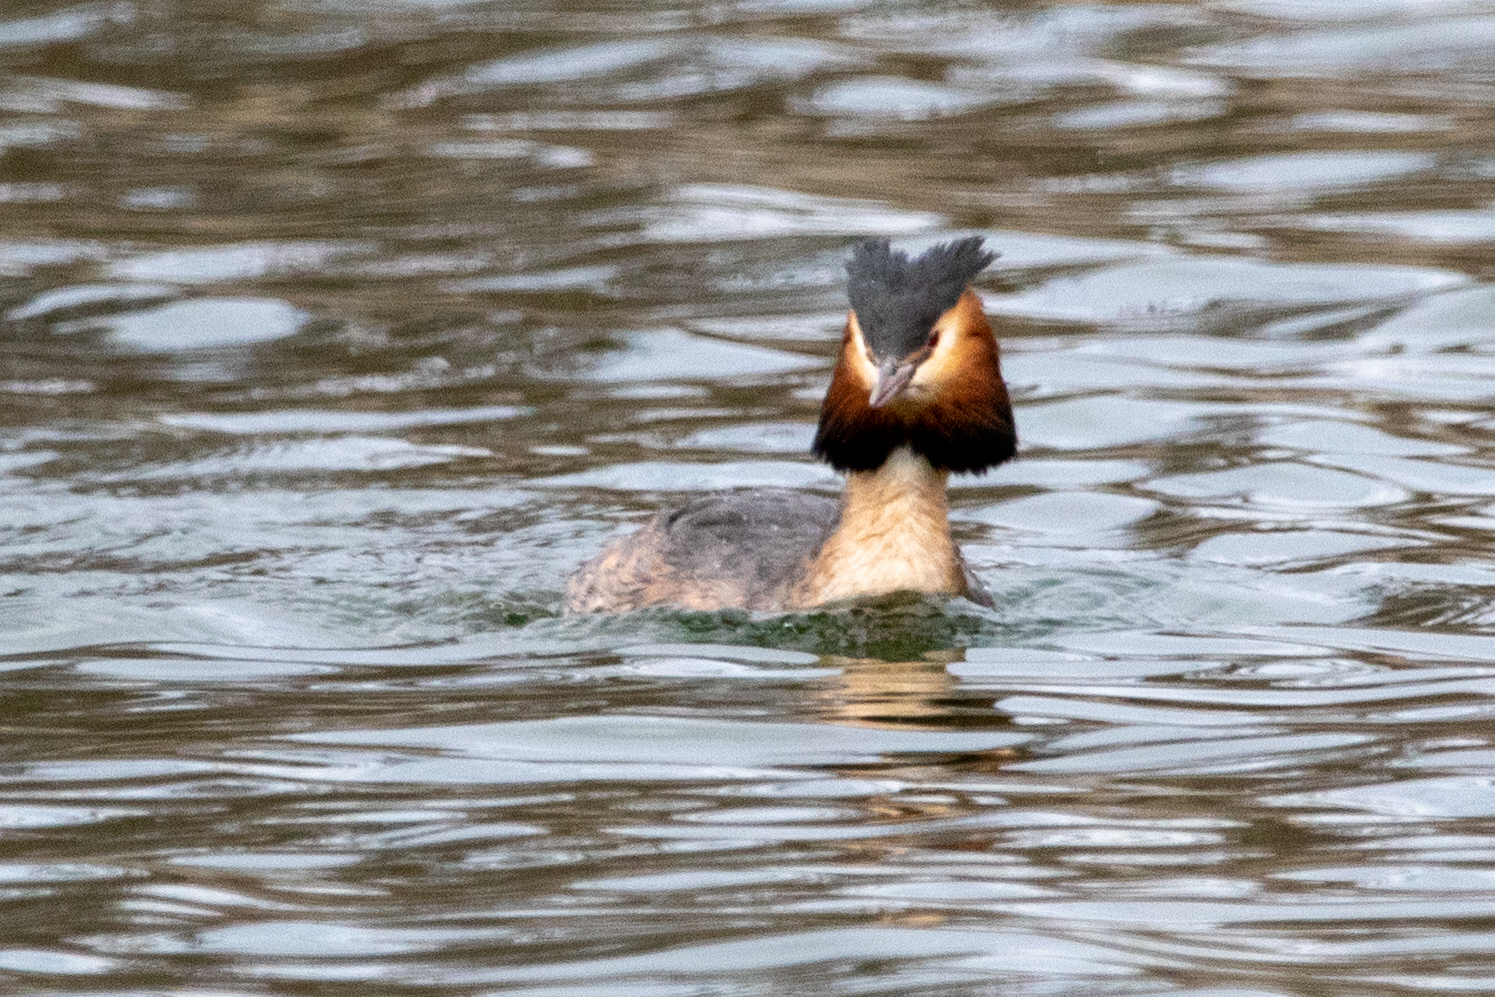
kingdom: Animalia
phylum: Chordata
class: Aves
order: Podicipediformes
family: Podicipedidae
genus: Podiceps
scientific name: Podiceps cristatus
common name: Great crested grebe
